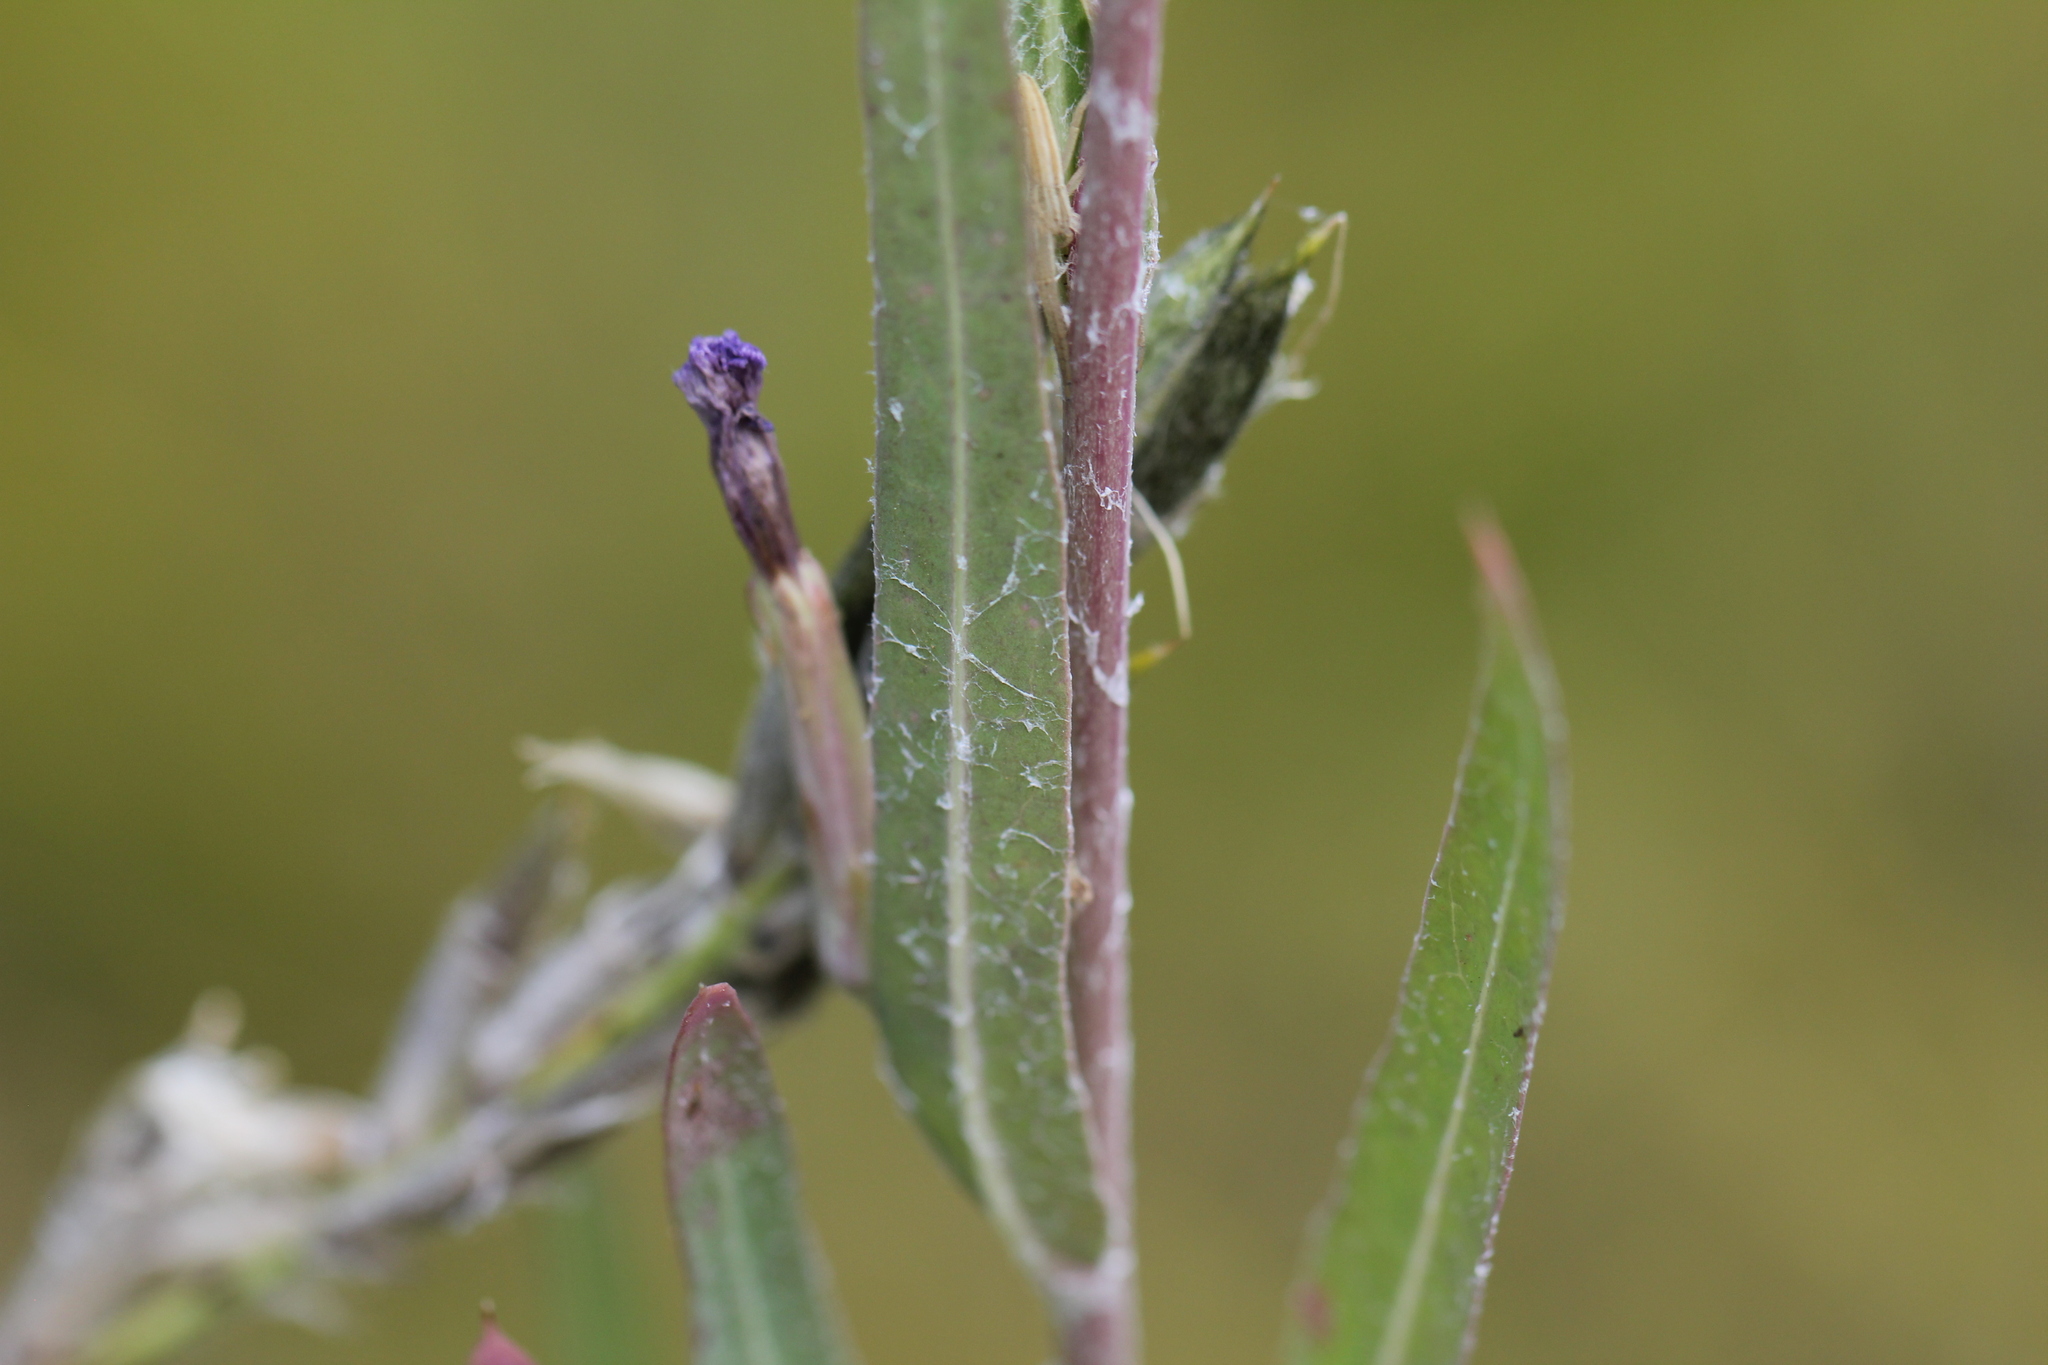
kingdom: Plantae
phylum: Tracheophyta
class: Magnoliopsida
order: Asterales
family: Asteraceae
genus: Lactuca
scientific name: Lactuca tatarica
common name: Blue lettuce
